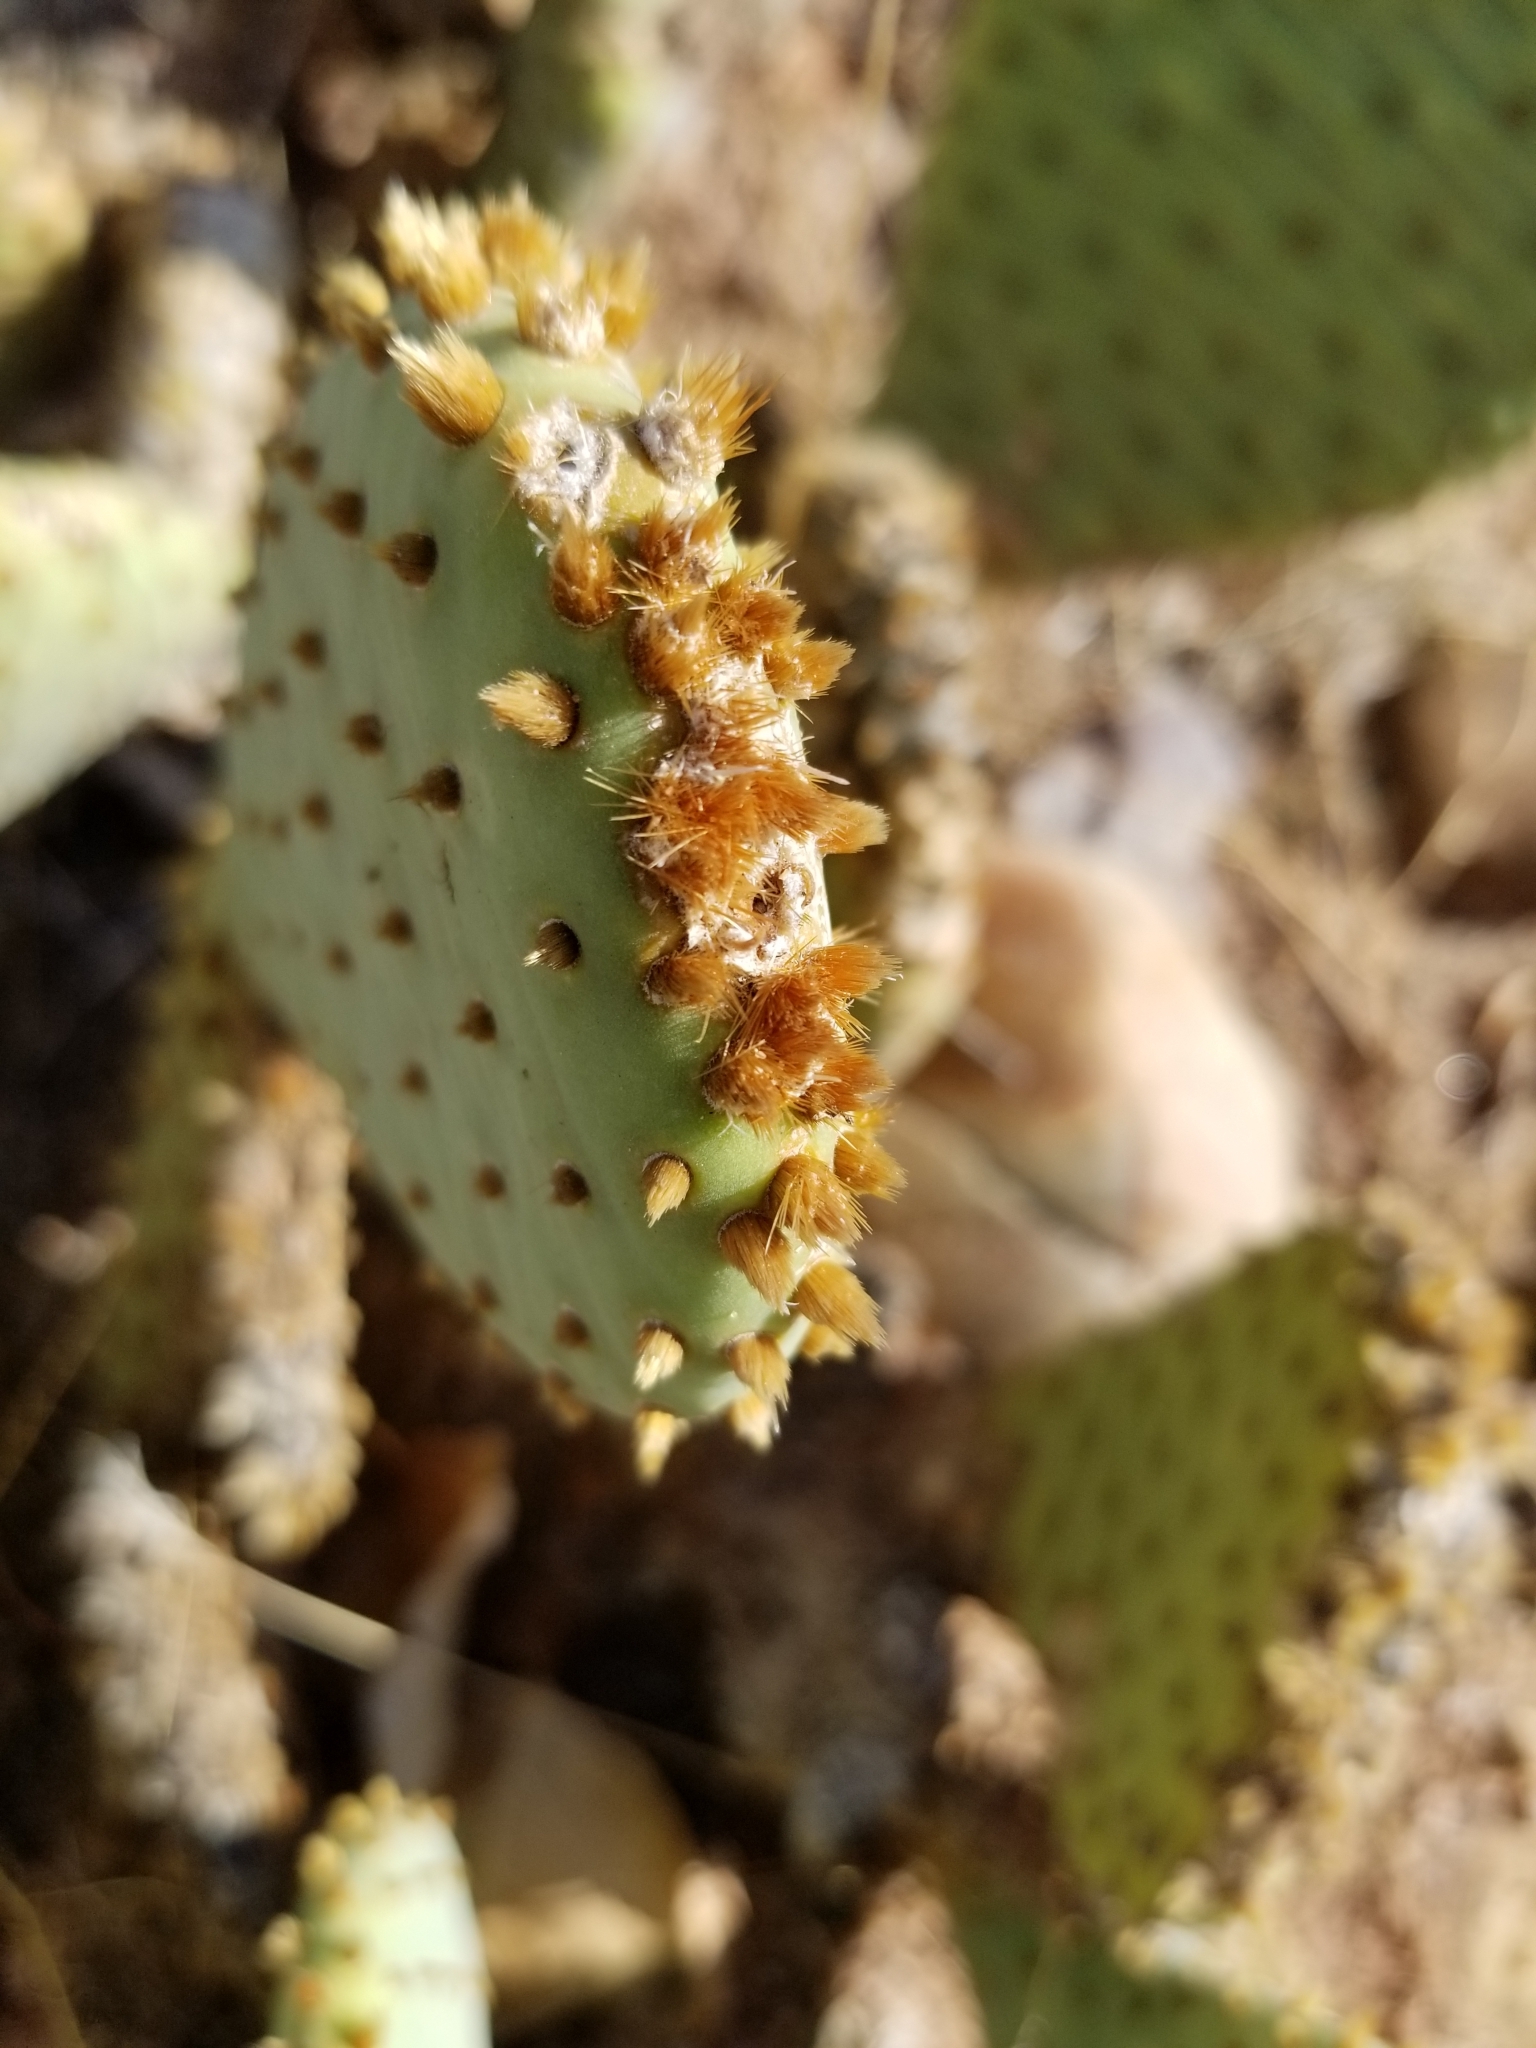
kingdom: Plantae
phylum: Tracheophyta
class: Magnoliopsida
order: Caryophyllales
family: Cactaceae
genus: Opuntia
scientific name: Opuntia basilaris
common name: Beavertail prickly-pear
